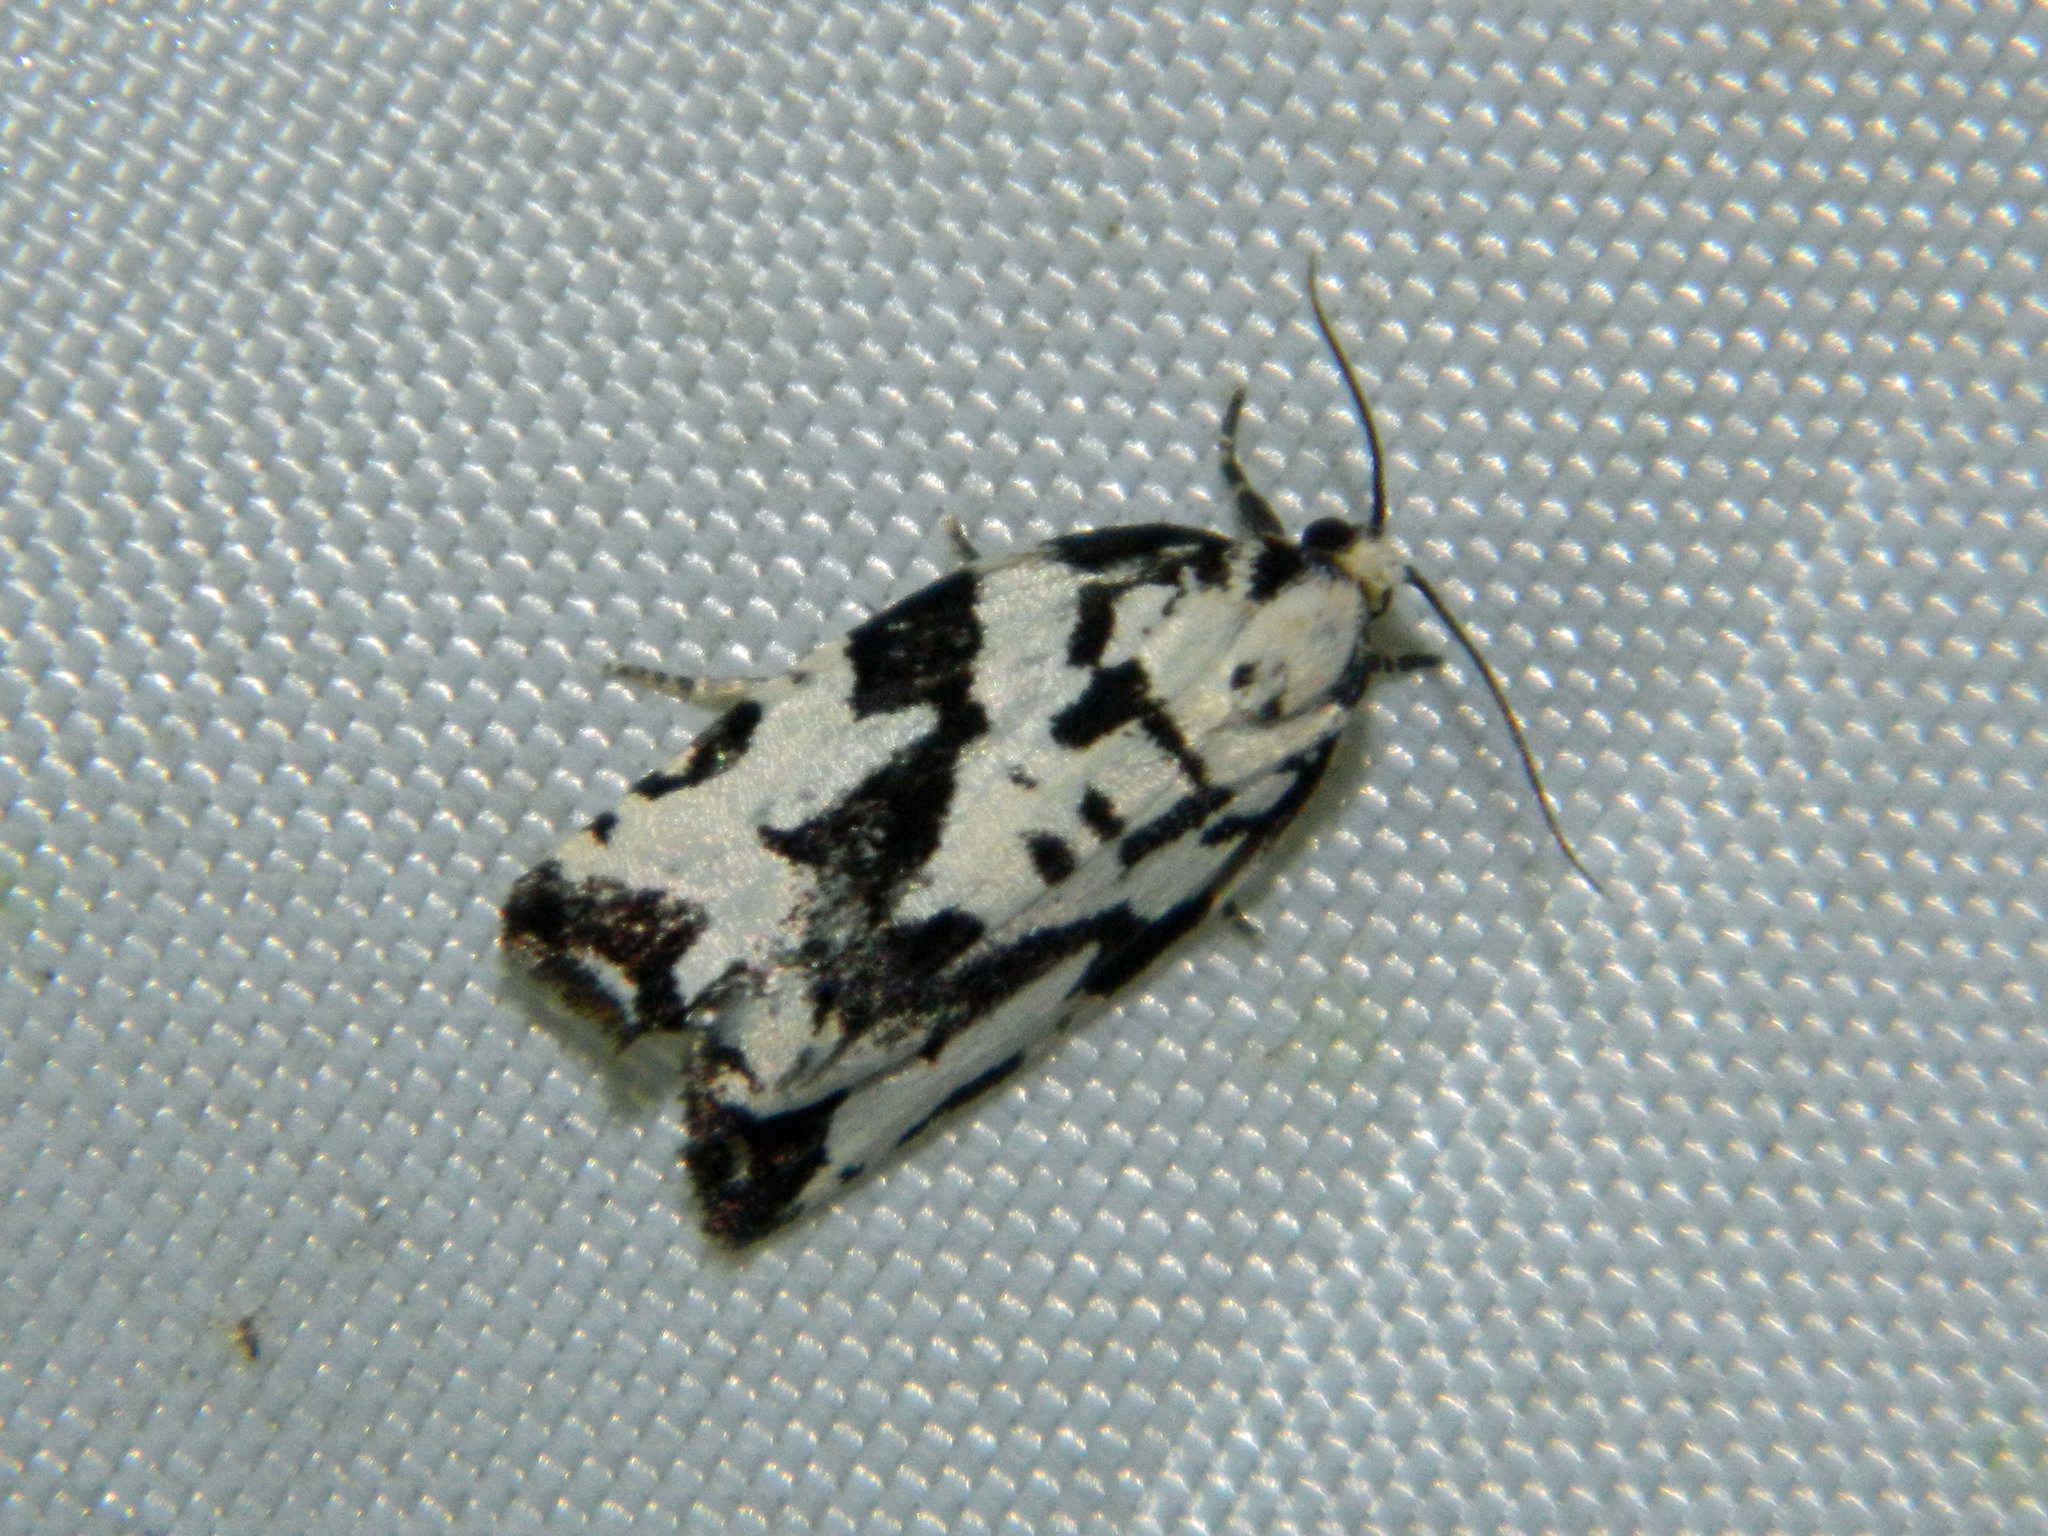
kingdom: Animalia
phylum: Arthropoda
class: Insecta
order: Lepidoptera
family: Tortricidae
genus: Archips
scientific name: Archips dissitana
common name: Boldly-marked archips moth
